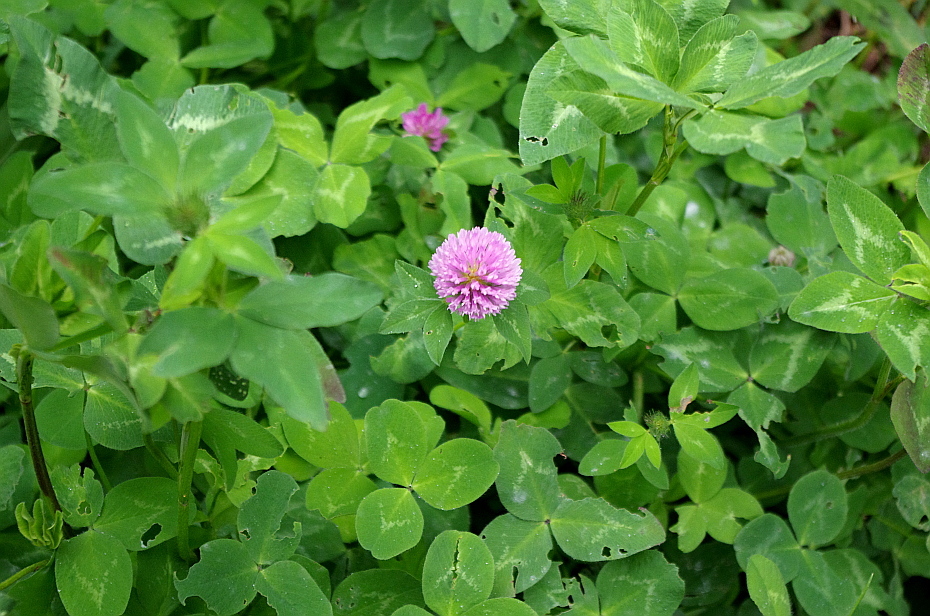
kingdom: Plantae
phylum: Tracheophyta
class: Magnoliopsida
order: Fabales
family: Fabaceae
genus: Trifolium
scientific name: Trifolium pratense
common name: Red clover
